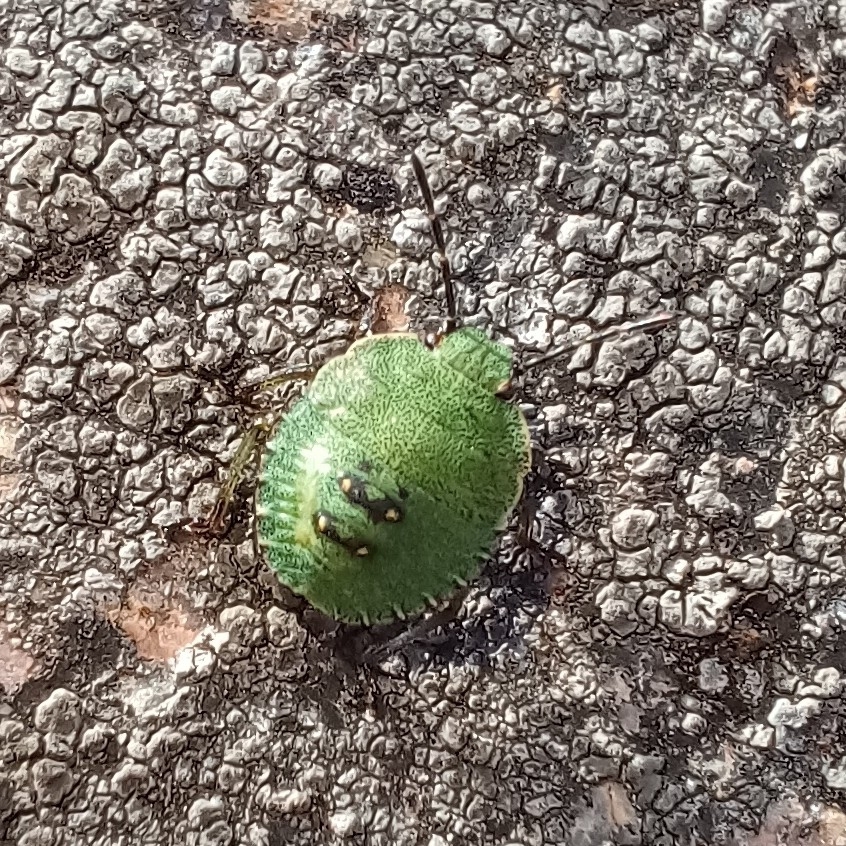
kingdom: Animalia
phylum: Arthropoda
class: Insecta
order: Hemiptera
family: Pentatomidae
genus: Palomena
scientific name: Palomena prasina
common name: Green shieldbug
